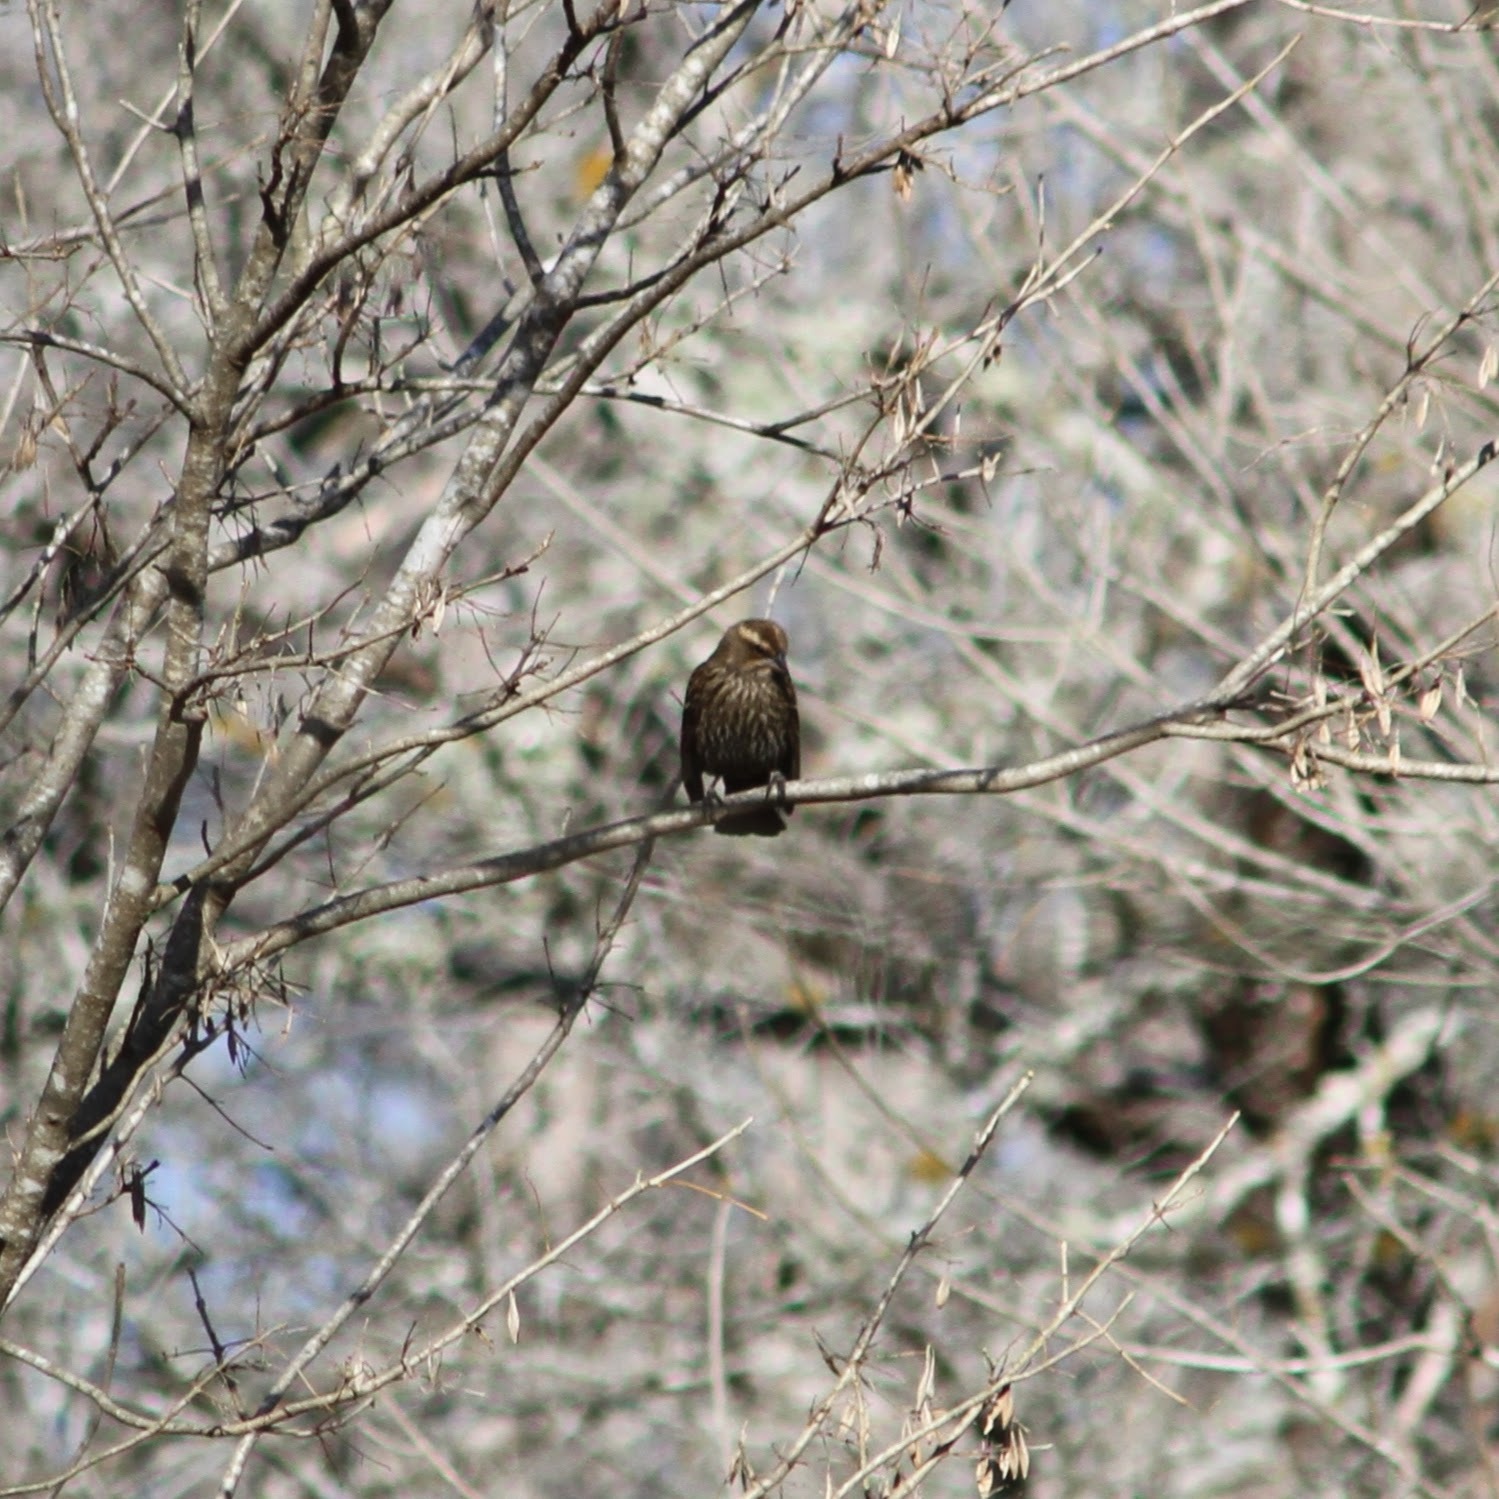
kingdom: Animalia
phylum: Chordata
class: Aves
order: Passeriformes
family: Icteridae
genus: Agelaius
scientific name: Agelaius phoeniceus
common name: Red-winged blackbird
